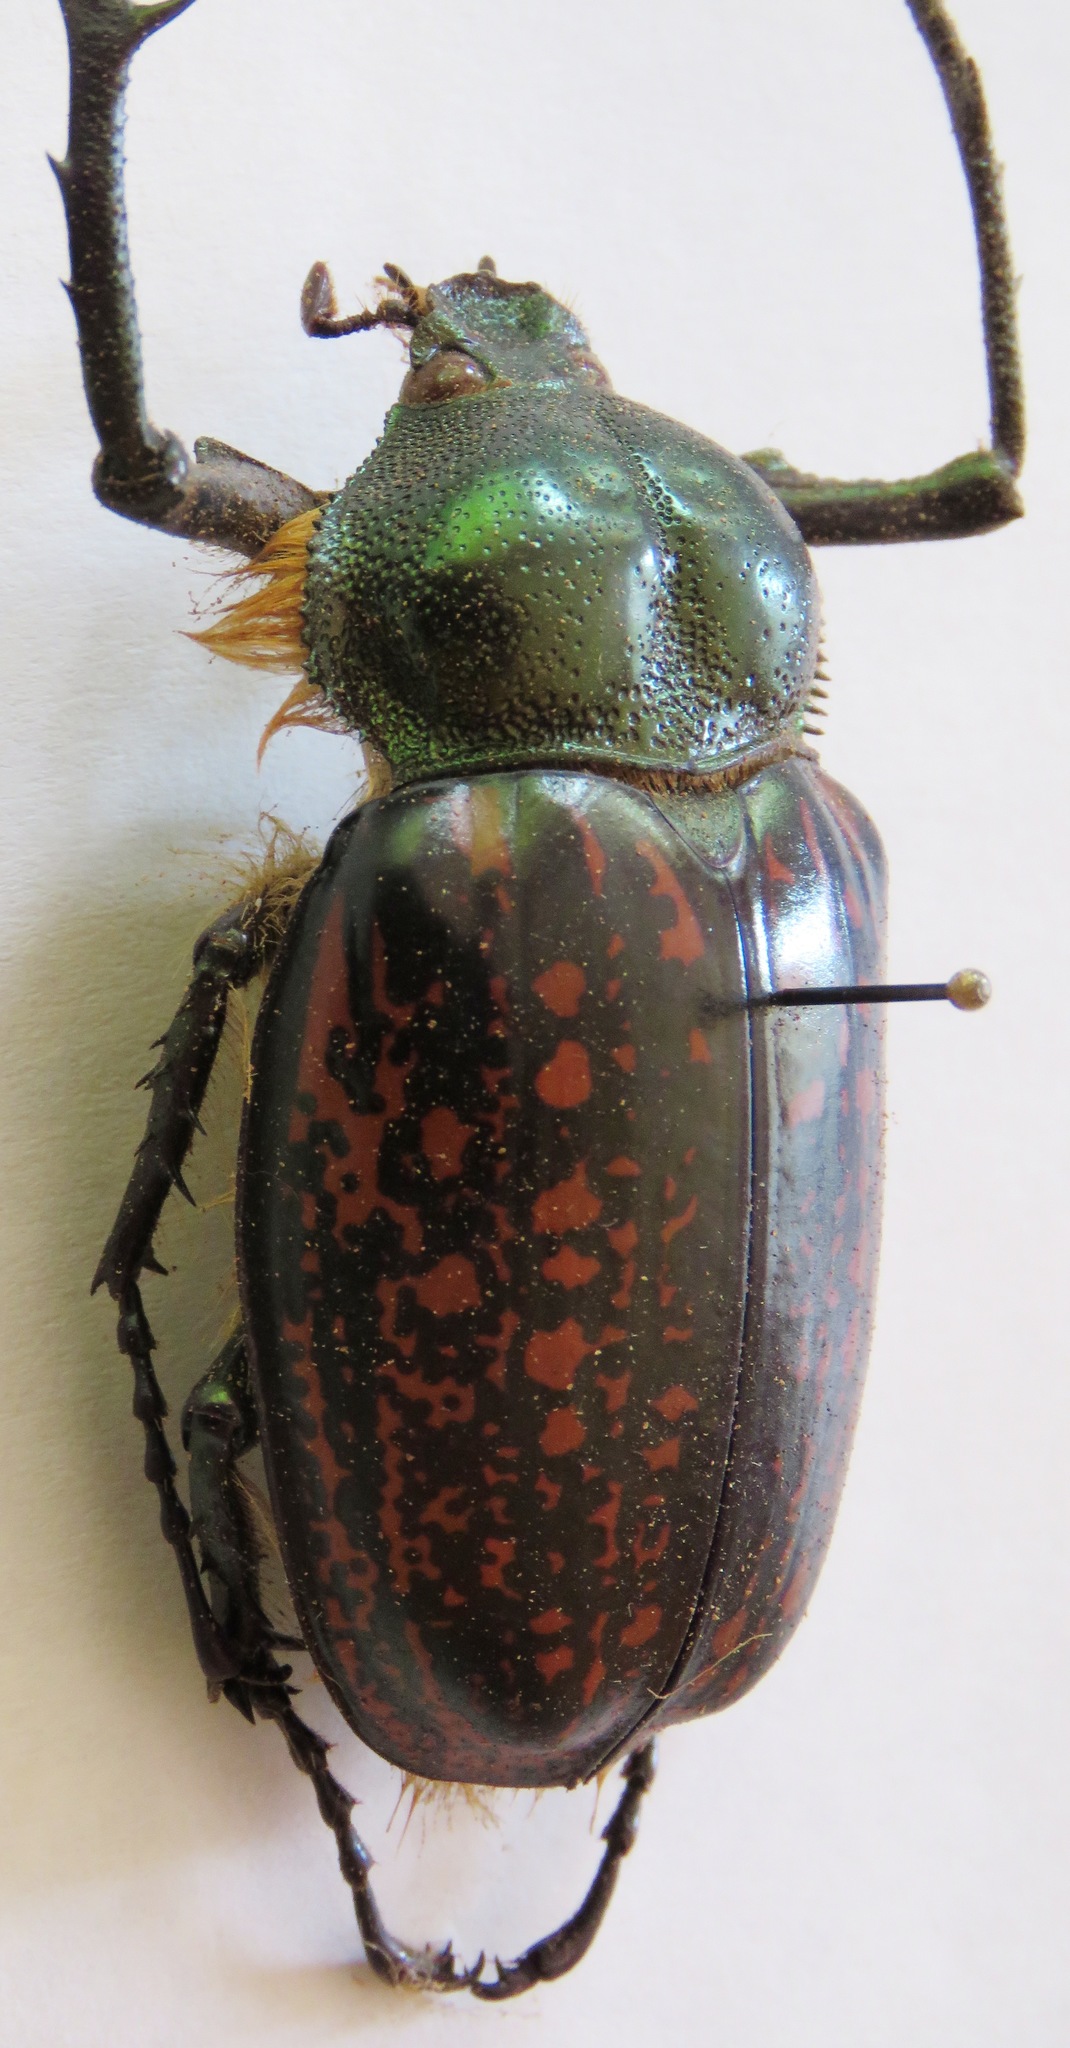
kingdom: Animalia
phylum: Arthropoda
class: Insecta
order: Coleoptera
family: Scarabaeidae
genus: Cheirotonus
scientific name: Cheirotonus formosanus
